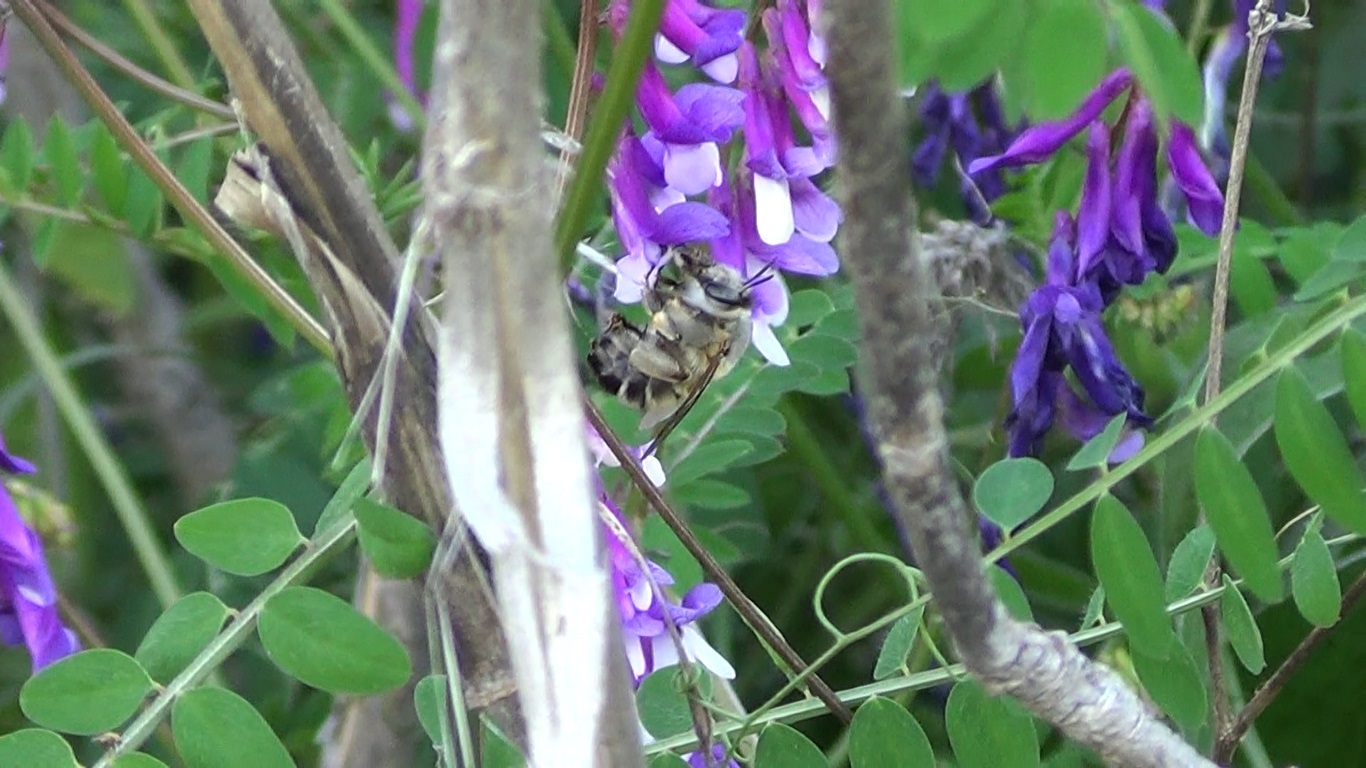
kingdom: Animalia
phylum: Arthropoda
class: Insecta
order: Hymenoptera
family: Apidae
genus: Anthophora
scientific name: Anthophora affinis
